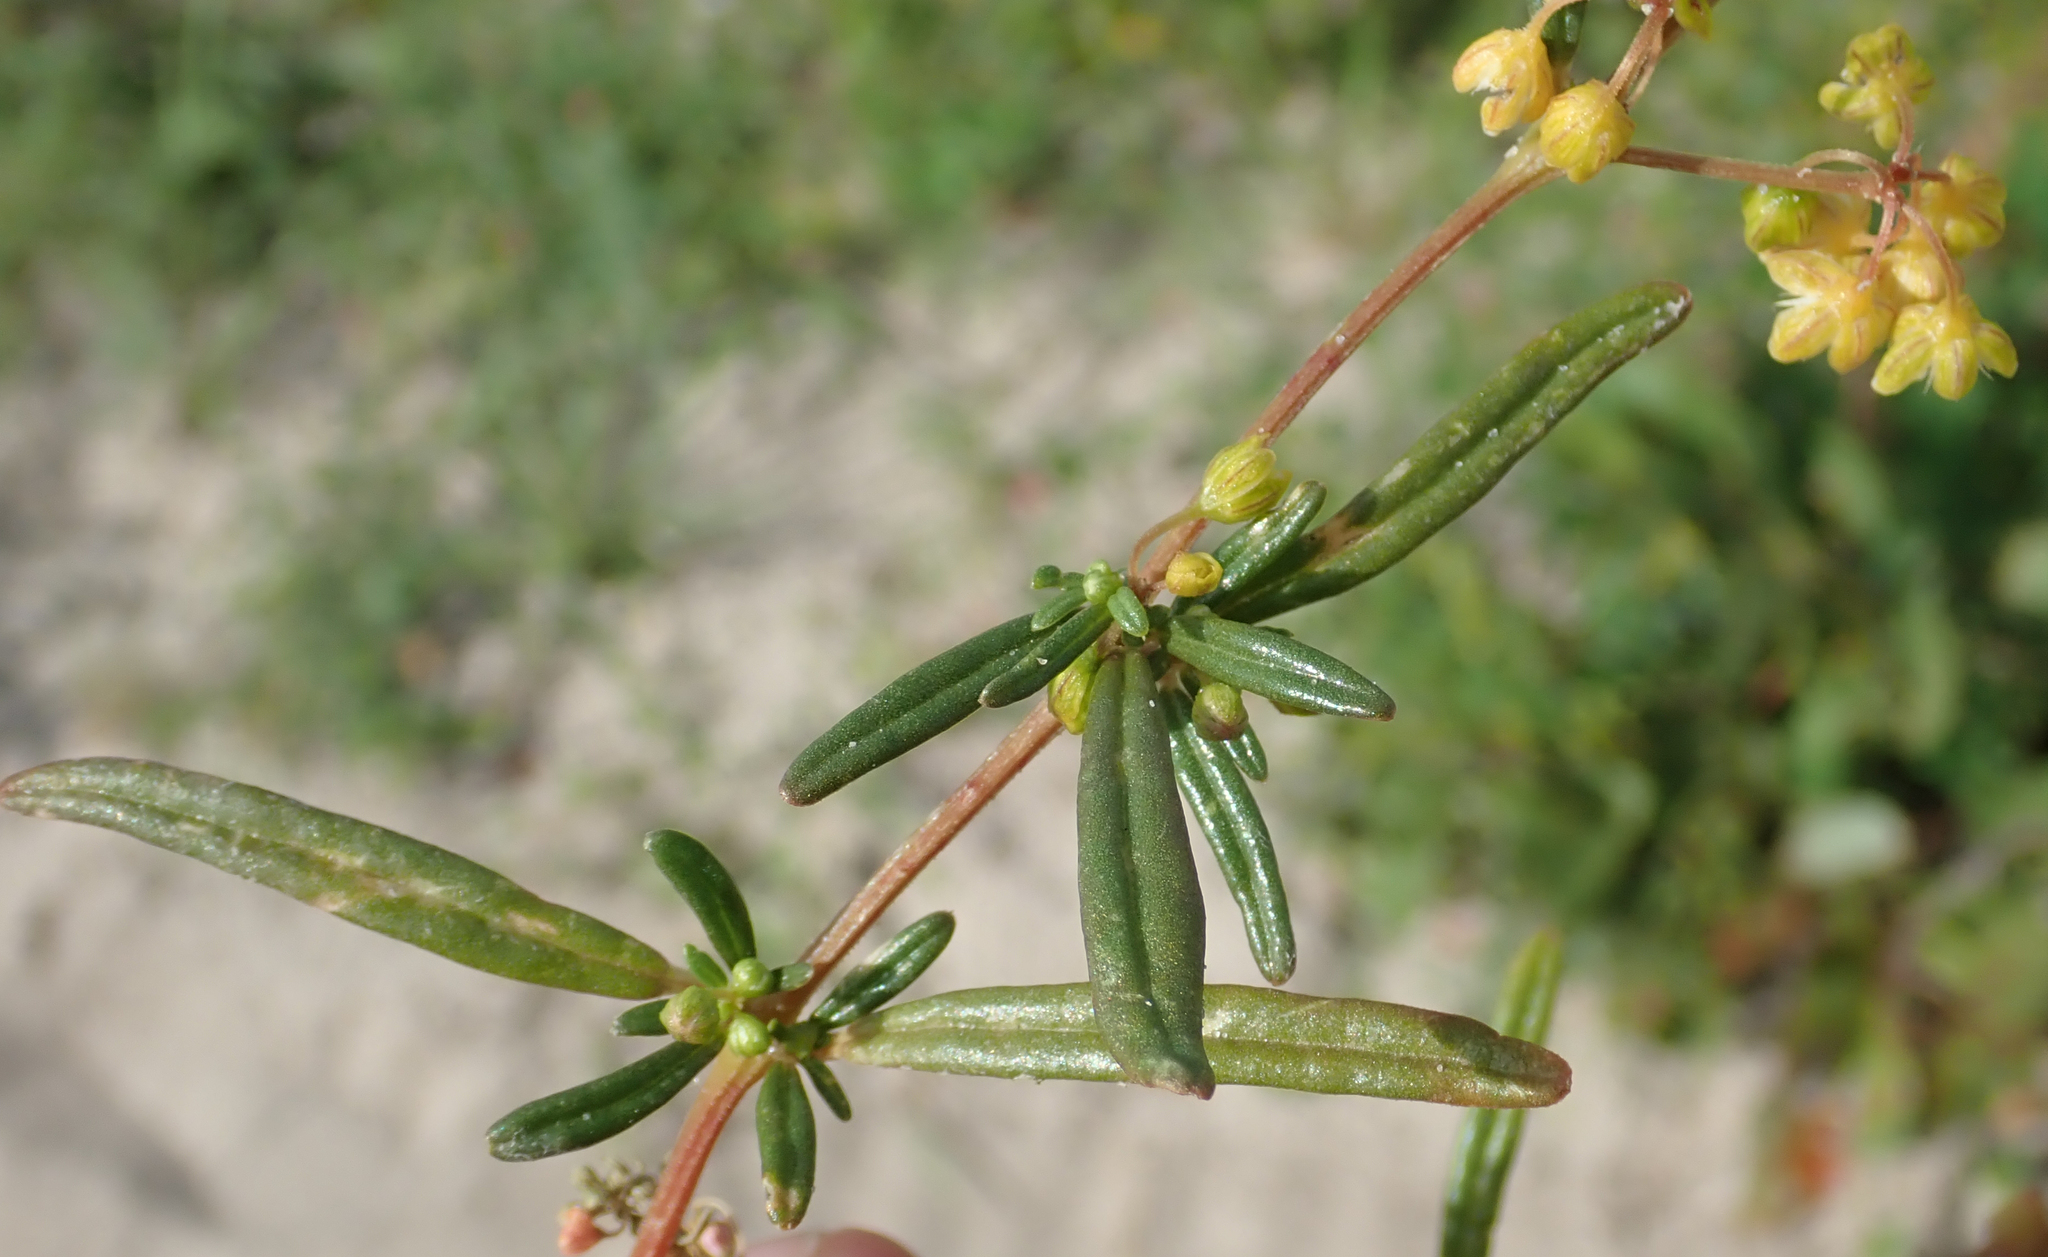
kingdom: Plantae
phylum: Tracheophyta
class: Magnoliopsida
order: Caryophyllales
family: Gisekiaceae
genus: Gisekia
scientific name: Gisekia pharnaceoides
